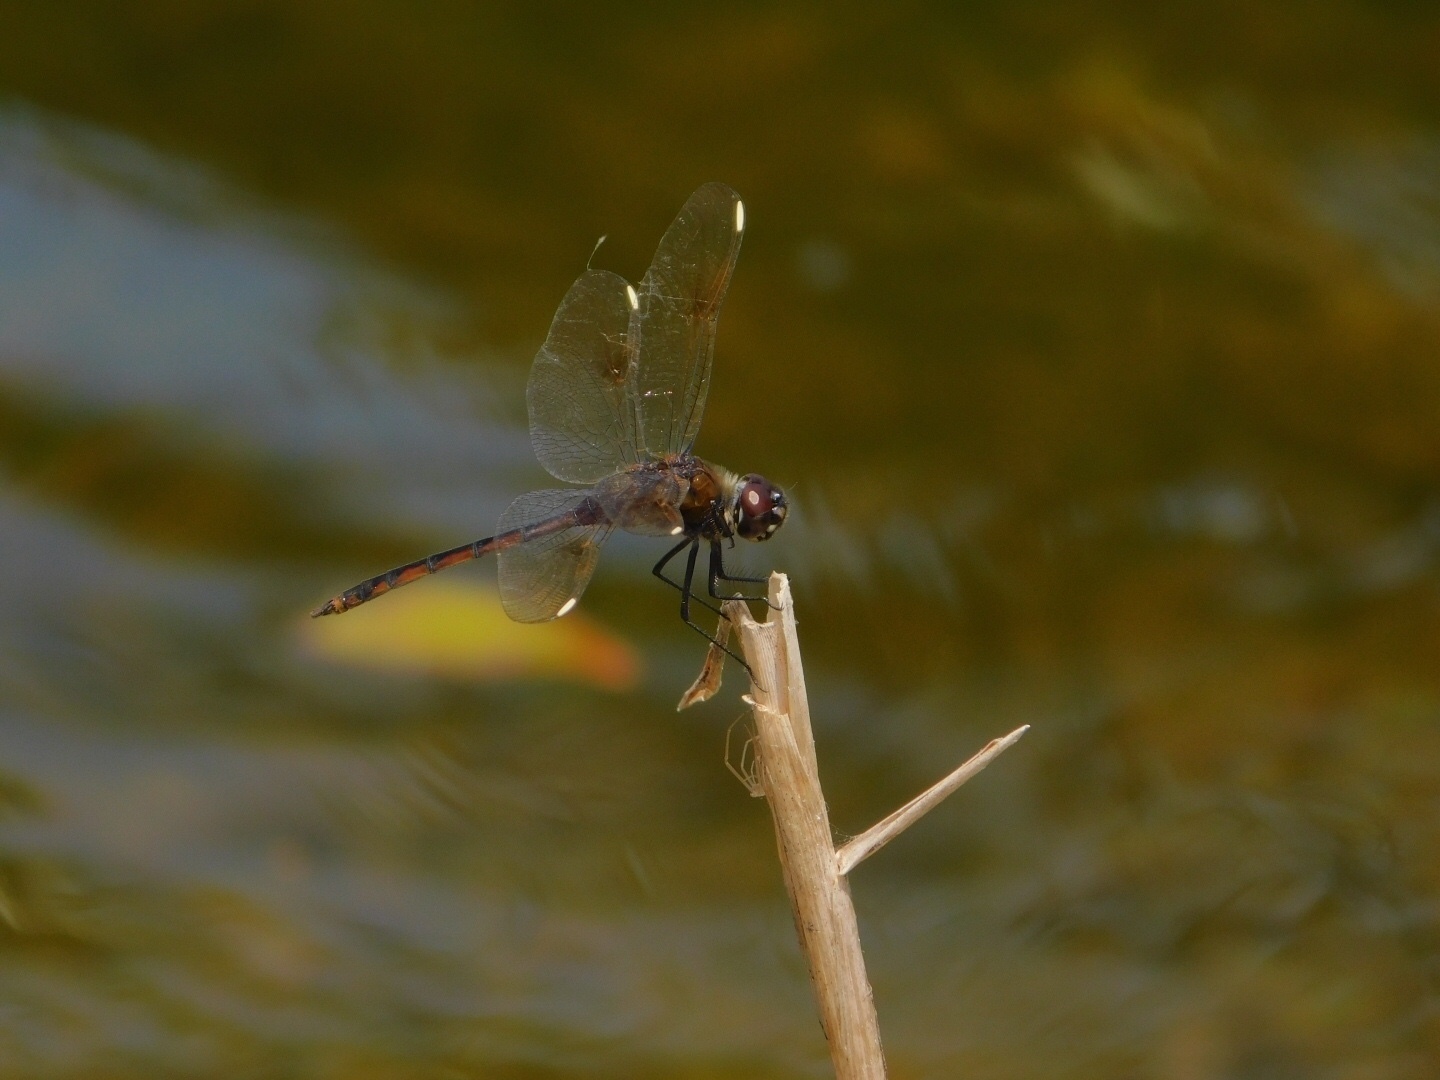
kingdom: Animalia
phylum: Arthropoda
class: Insecta
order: Odonata
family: Libellulidae
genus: Brachymesia
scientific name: Brachymesia gravida
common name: Four-spotted pennant
